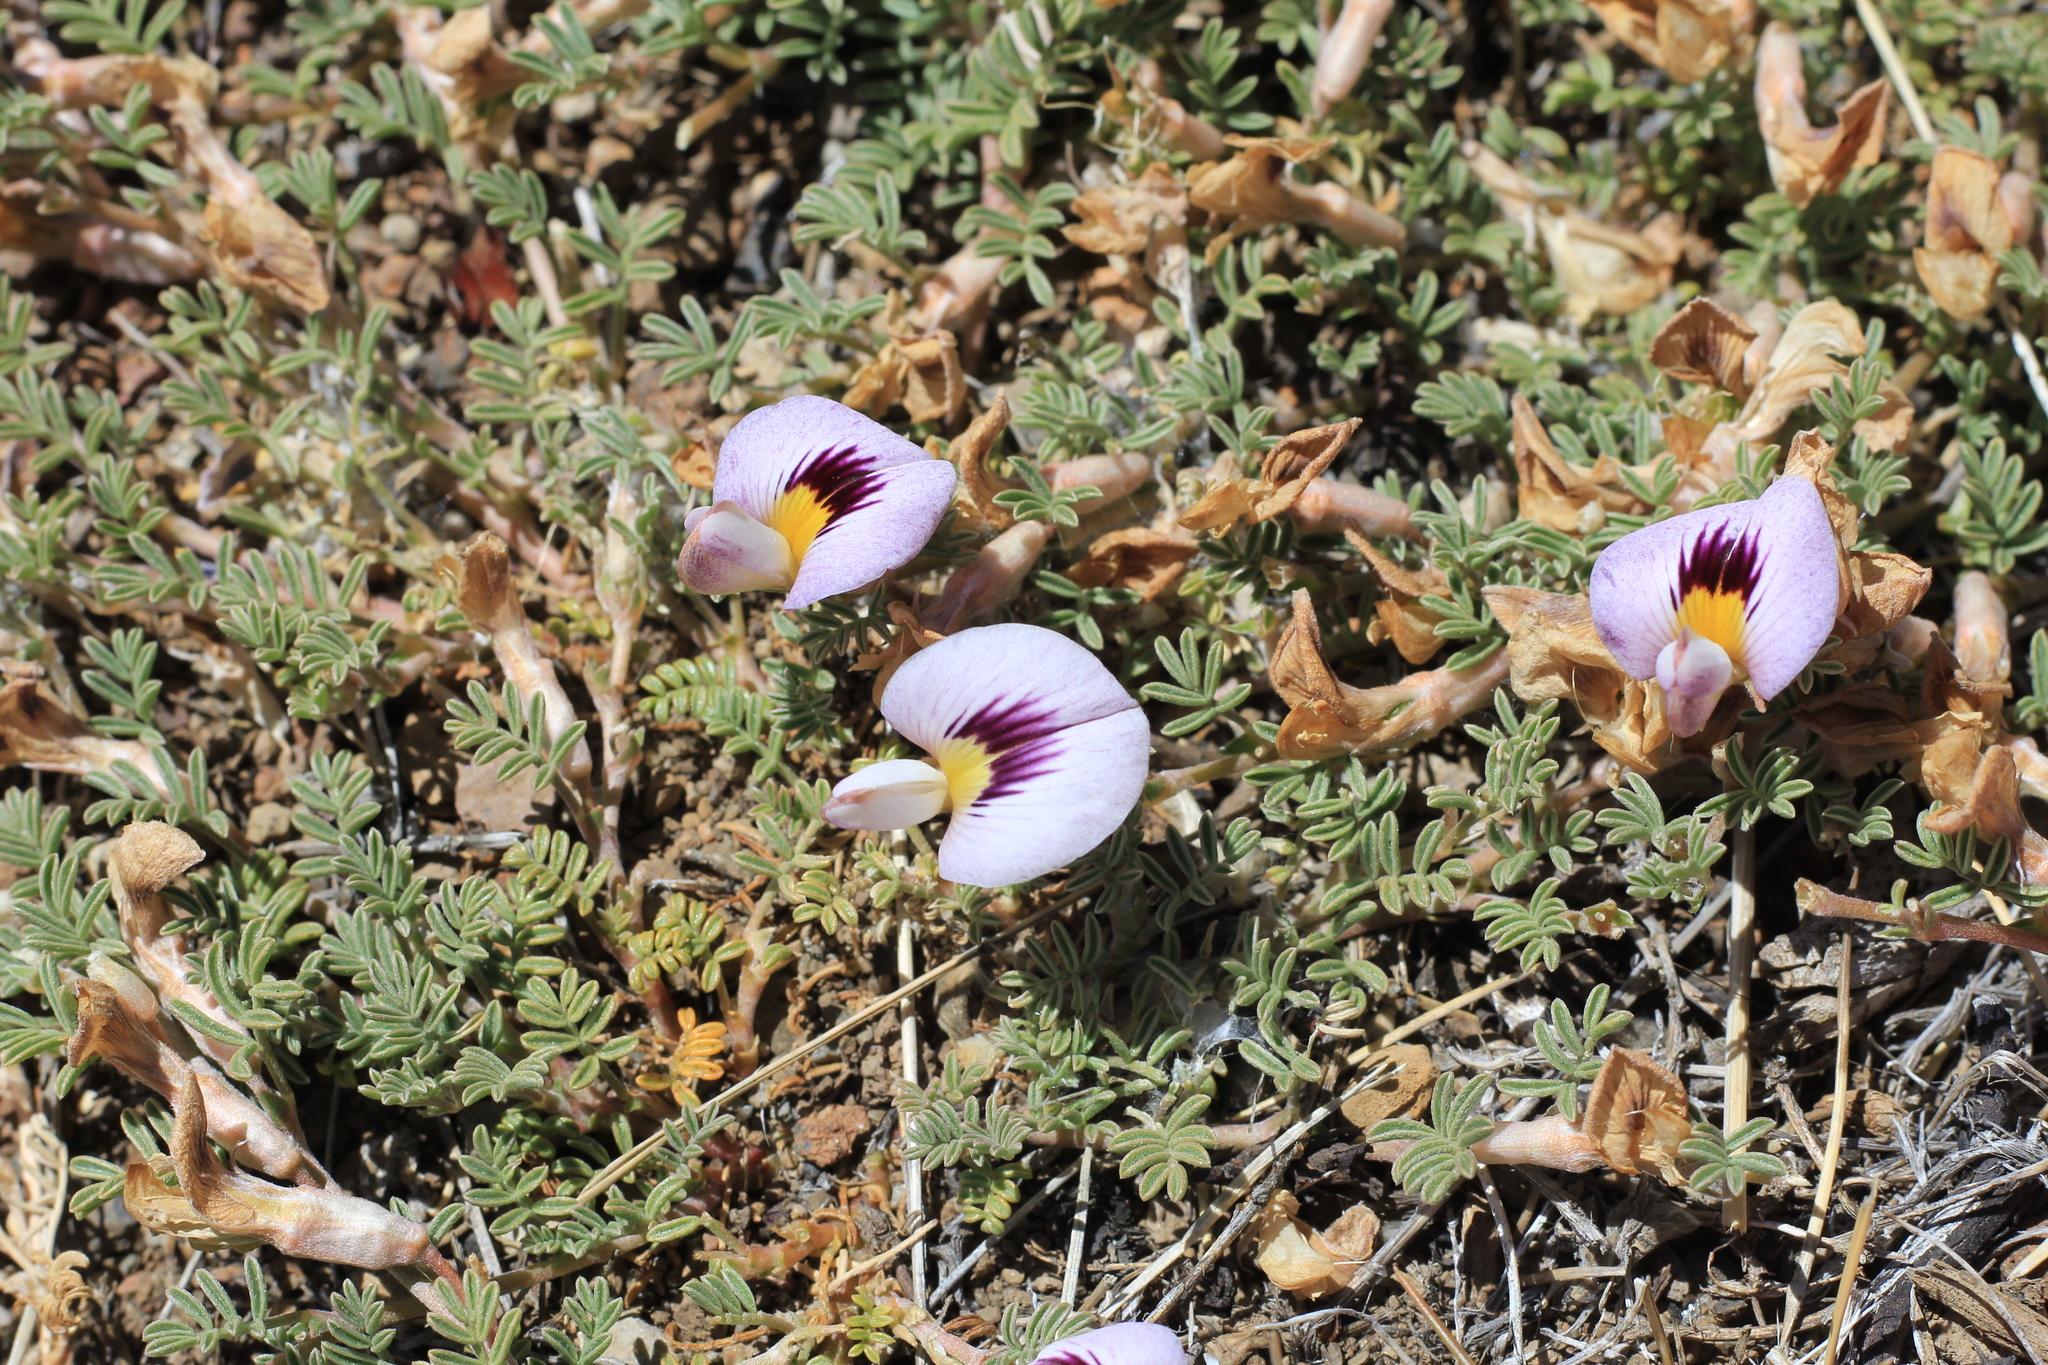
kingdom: Plantae
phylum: Tracheophyta
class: Magnoliopsida
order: Fabales
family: Fabaceae
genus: Adesmia
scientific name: Adesmia parvifolia
